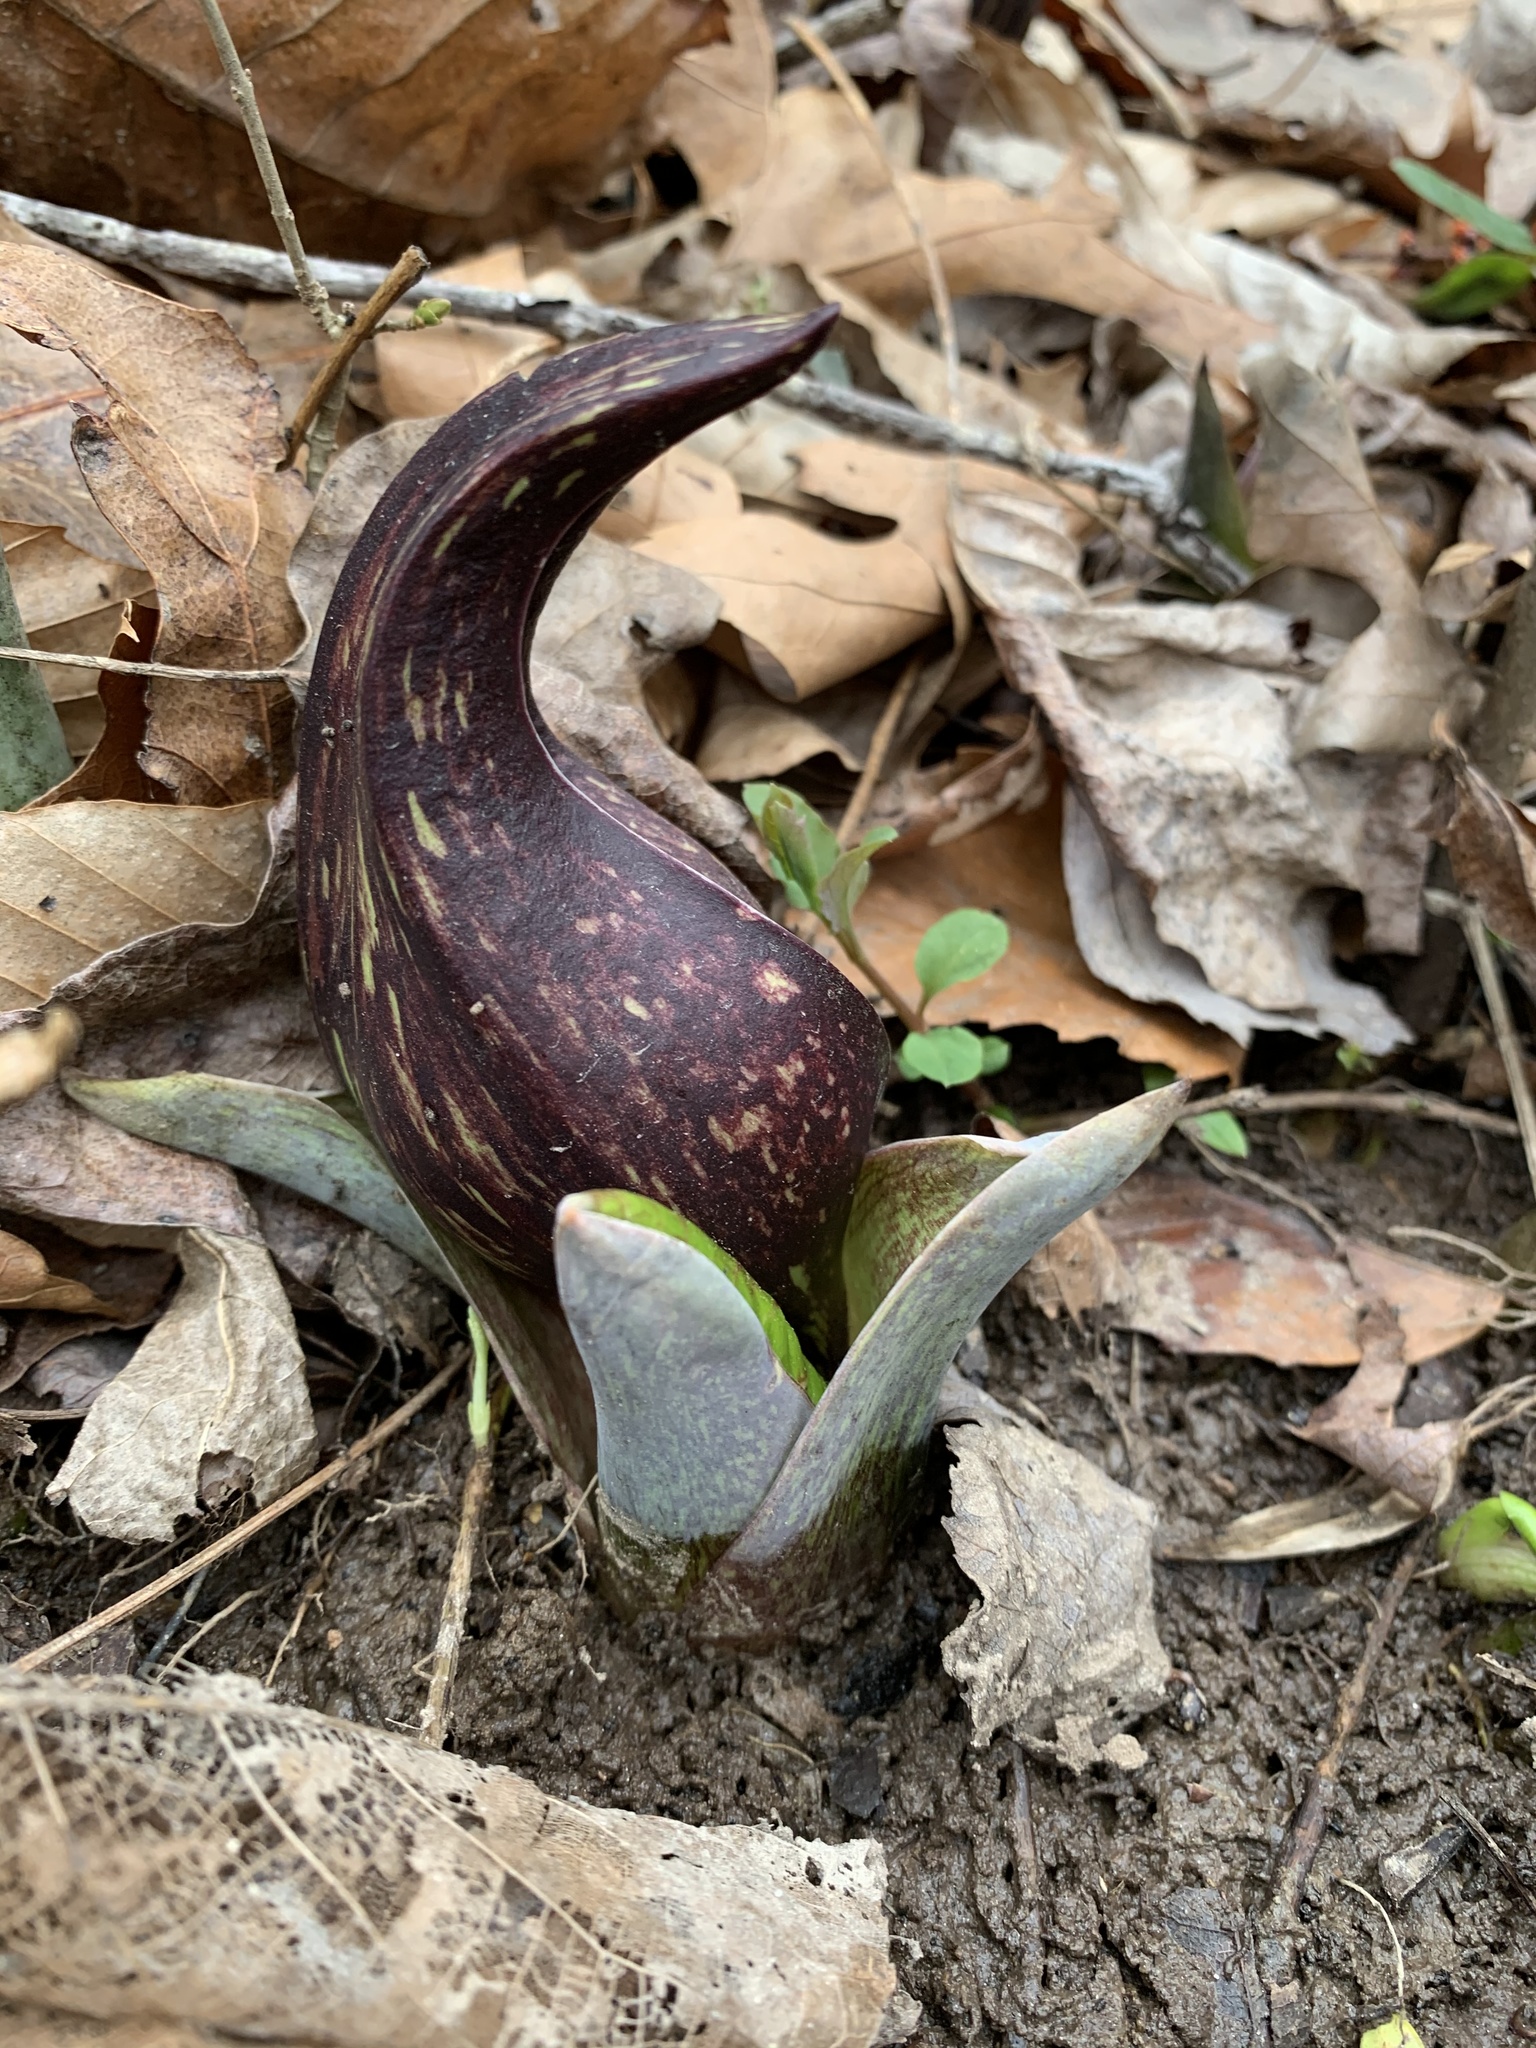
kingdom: Plantae
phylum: Tracheophyta
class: Liliopsida
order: Alismatales
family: Araceae
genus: Symplocarpus
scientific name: Symplocarpus foetidus
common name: Eastern skunk cabbage
